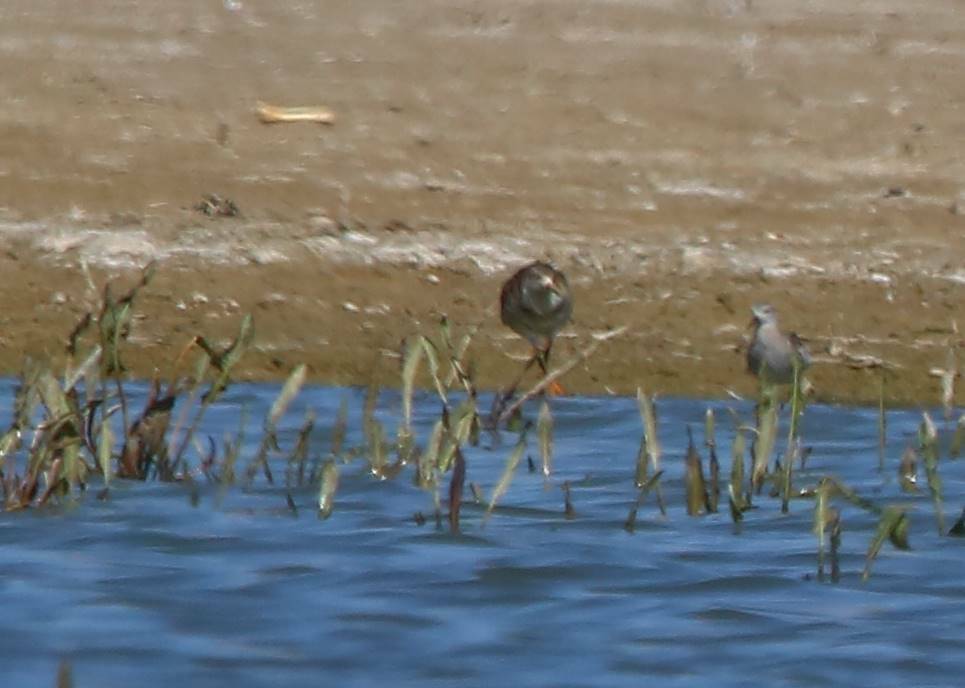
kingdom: Animalia
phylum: Chordata
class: Aves
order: Charadriiformes
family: Scolopacidae
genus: Calidris
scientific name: Calidris pugnax
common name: Ruff
